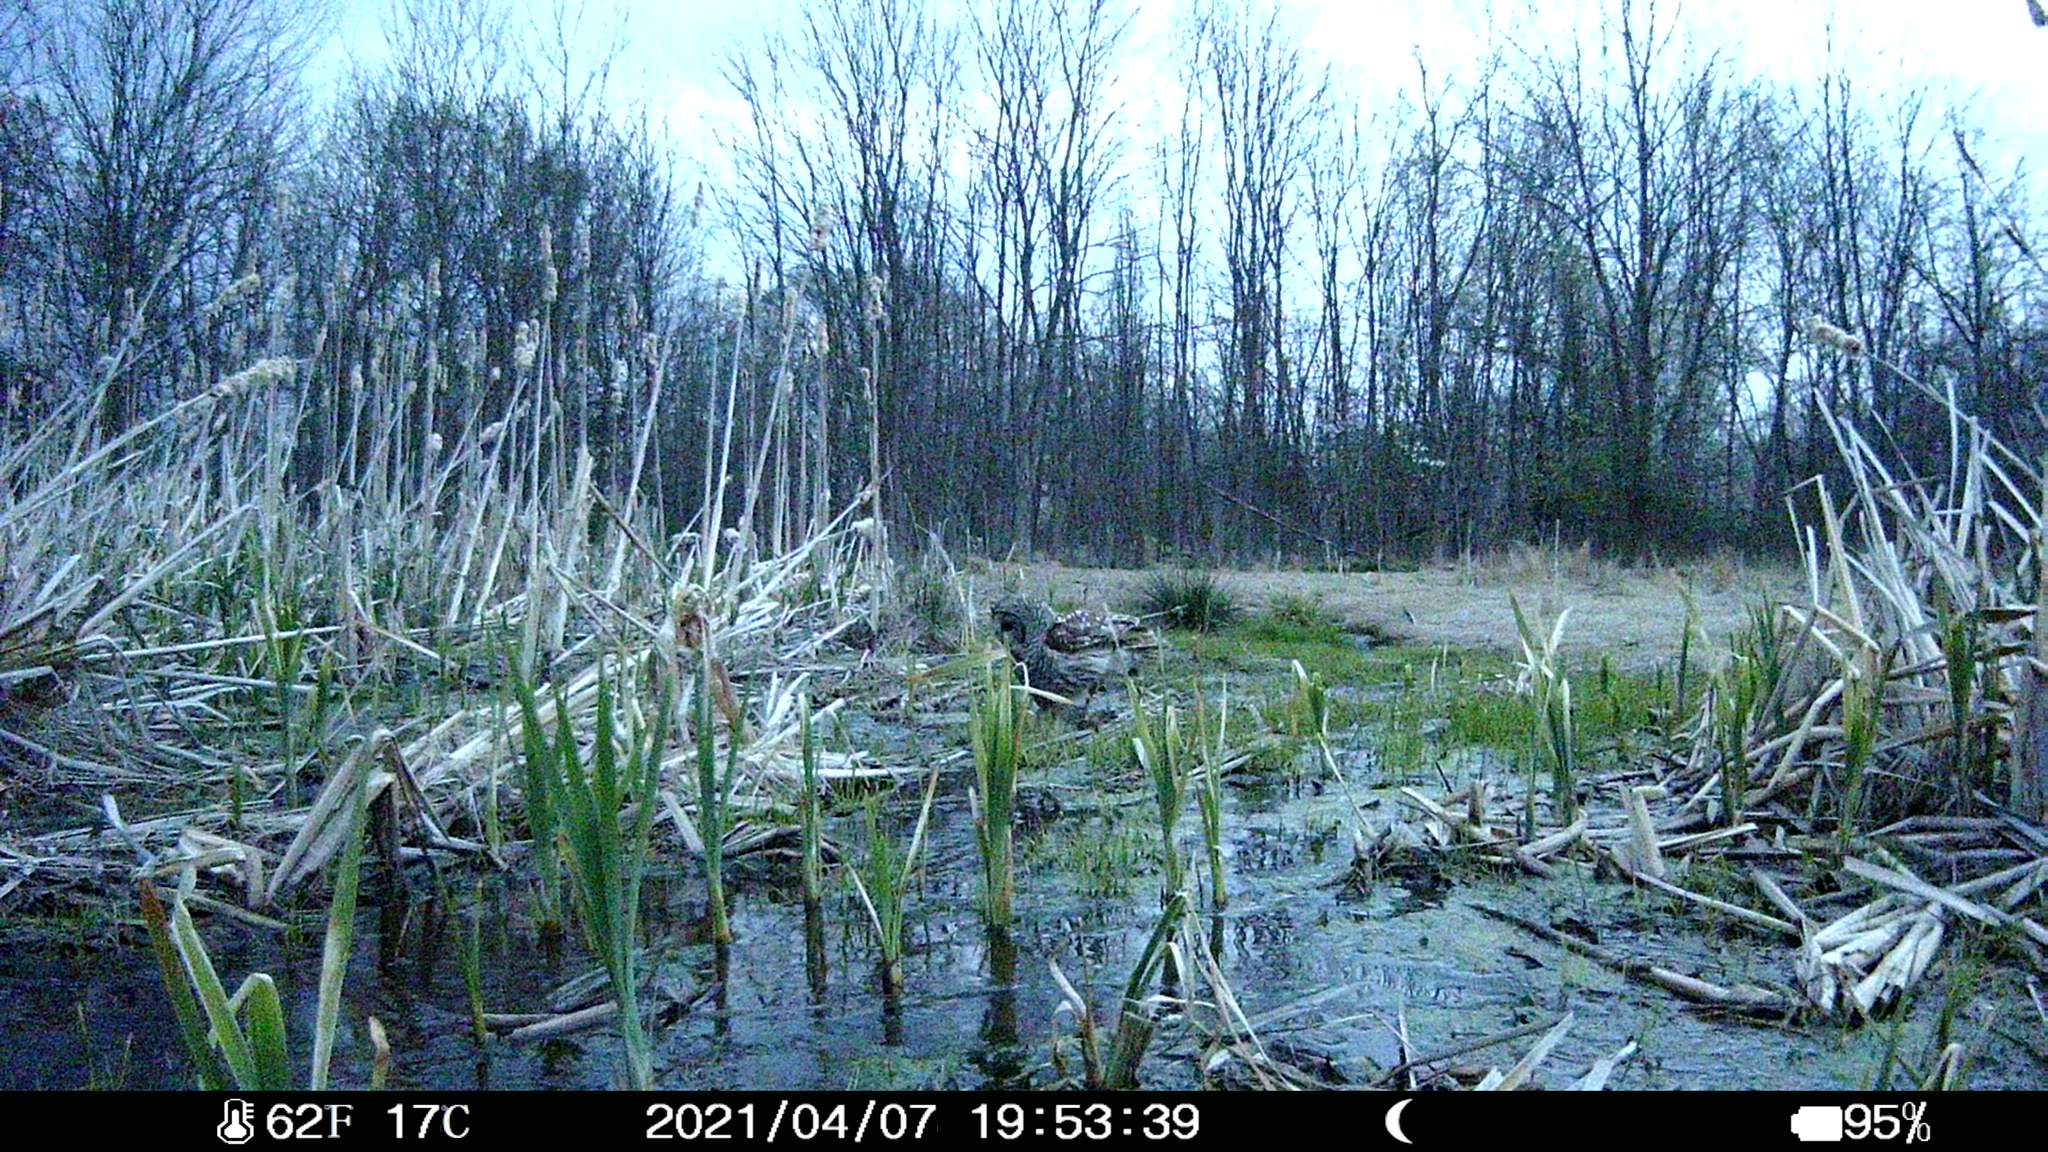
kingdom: Animalia
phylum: Chordata
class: Aves
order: Strigiformes
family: Strigidae
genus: Strix
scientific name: Strix varia
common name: Barred owl
